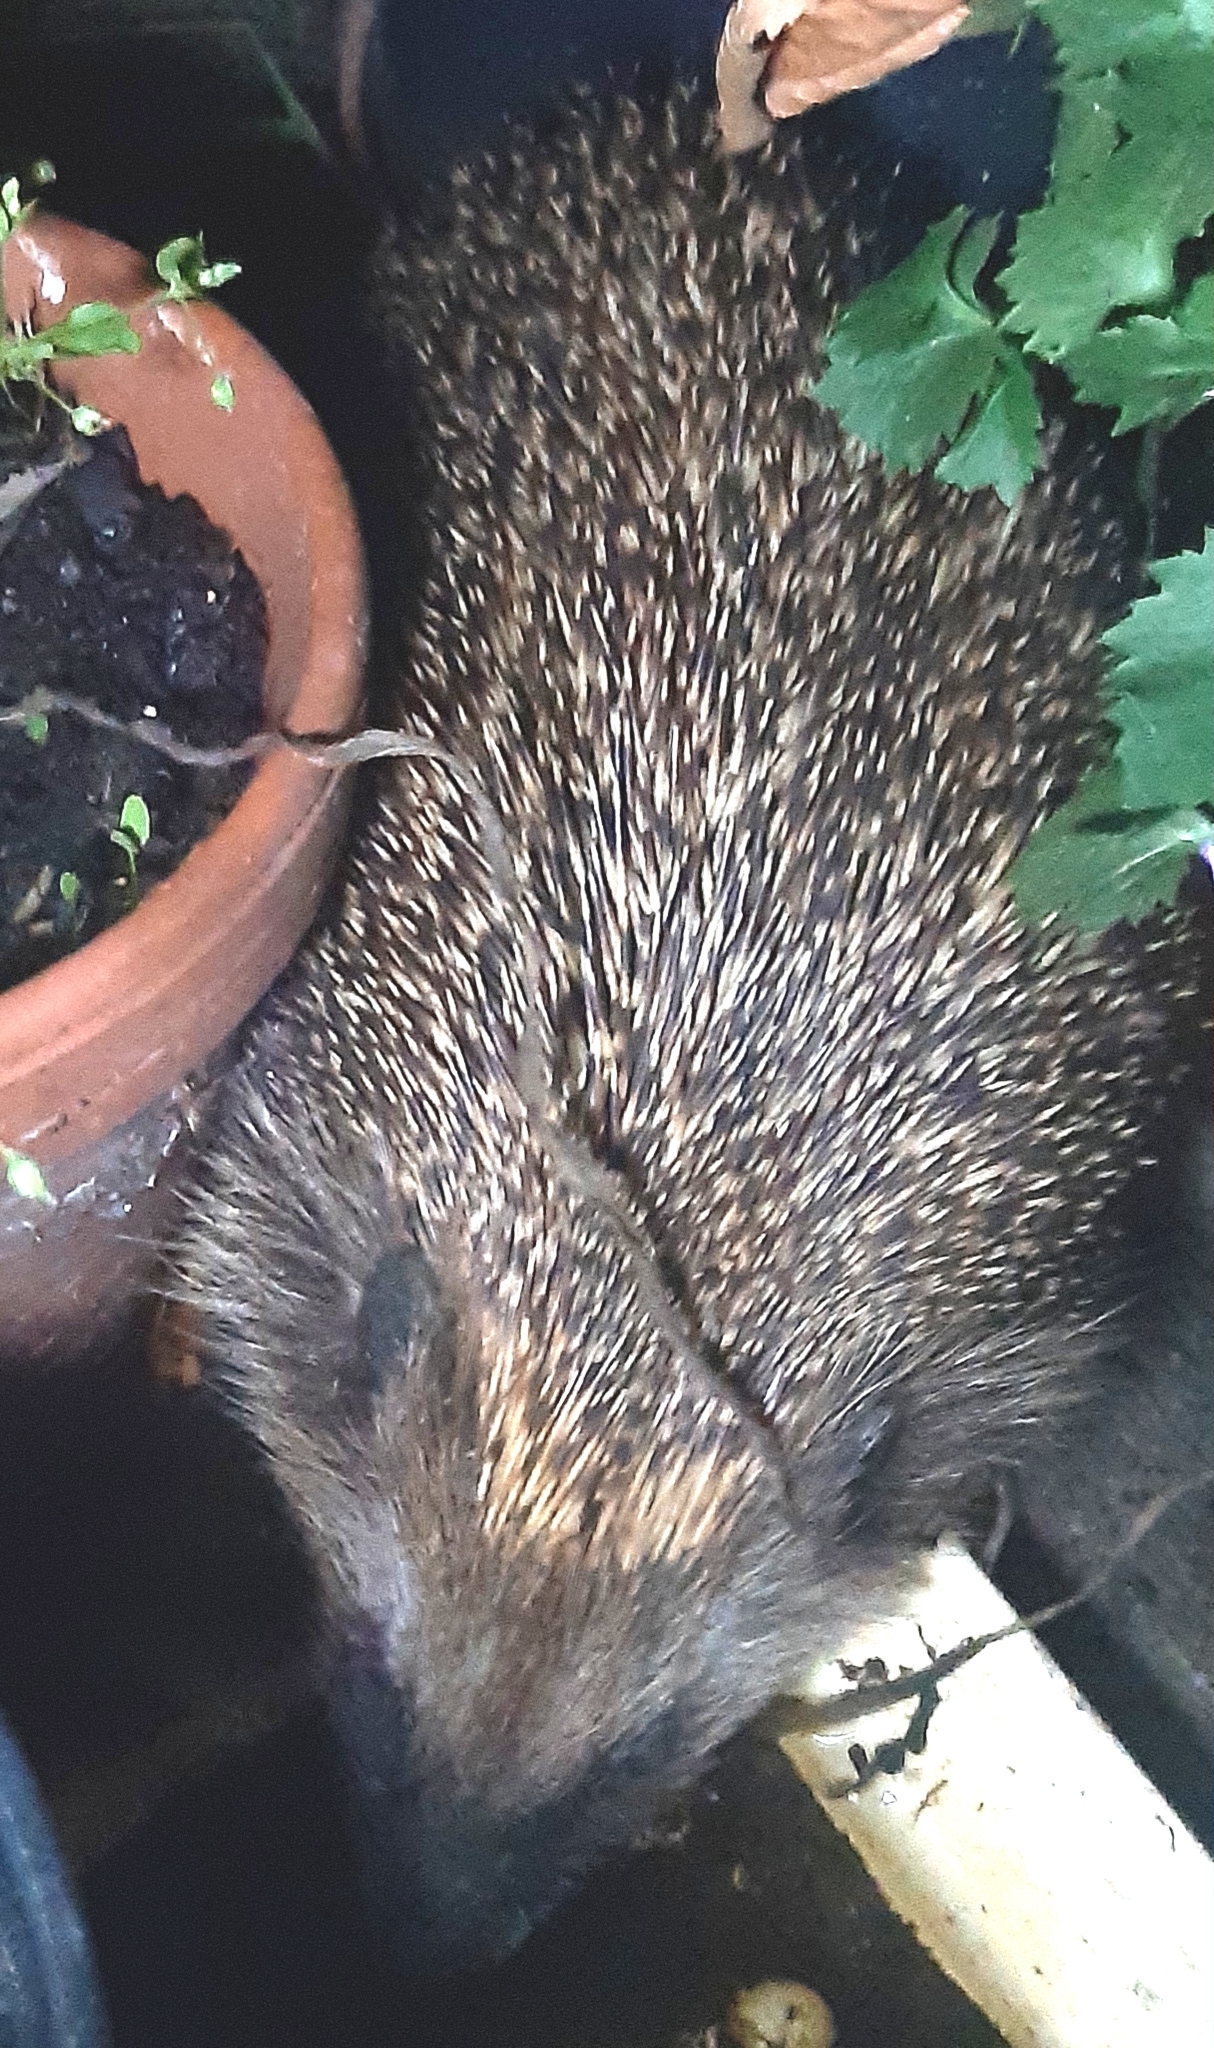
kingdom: Animalia
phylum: Chordata
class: Mammalia
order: Erinaceomorpha
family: Erinaceidae
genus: Erinaceus
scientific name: Erinaceus roumanicus
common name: Northern white-breasted hedgehog
